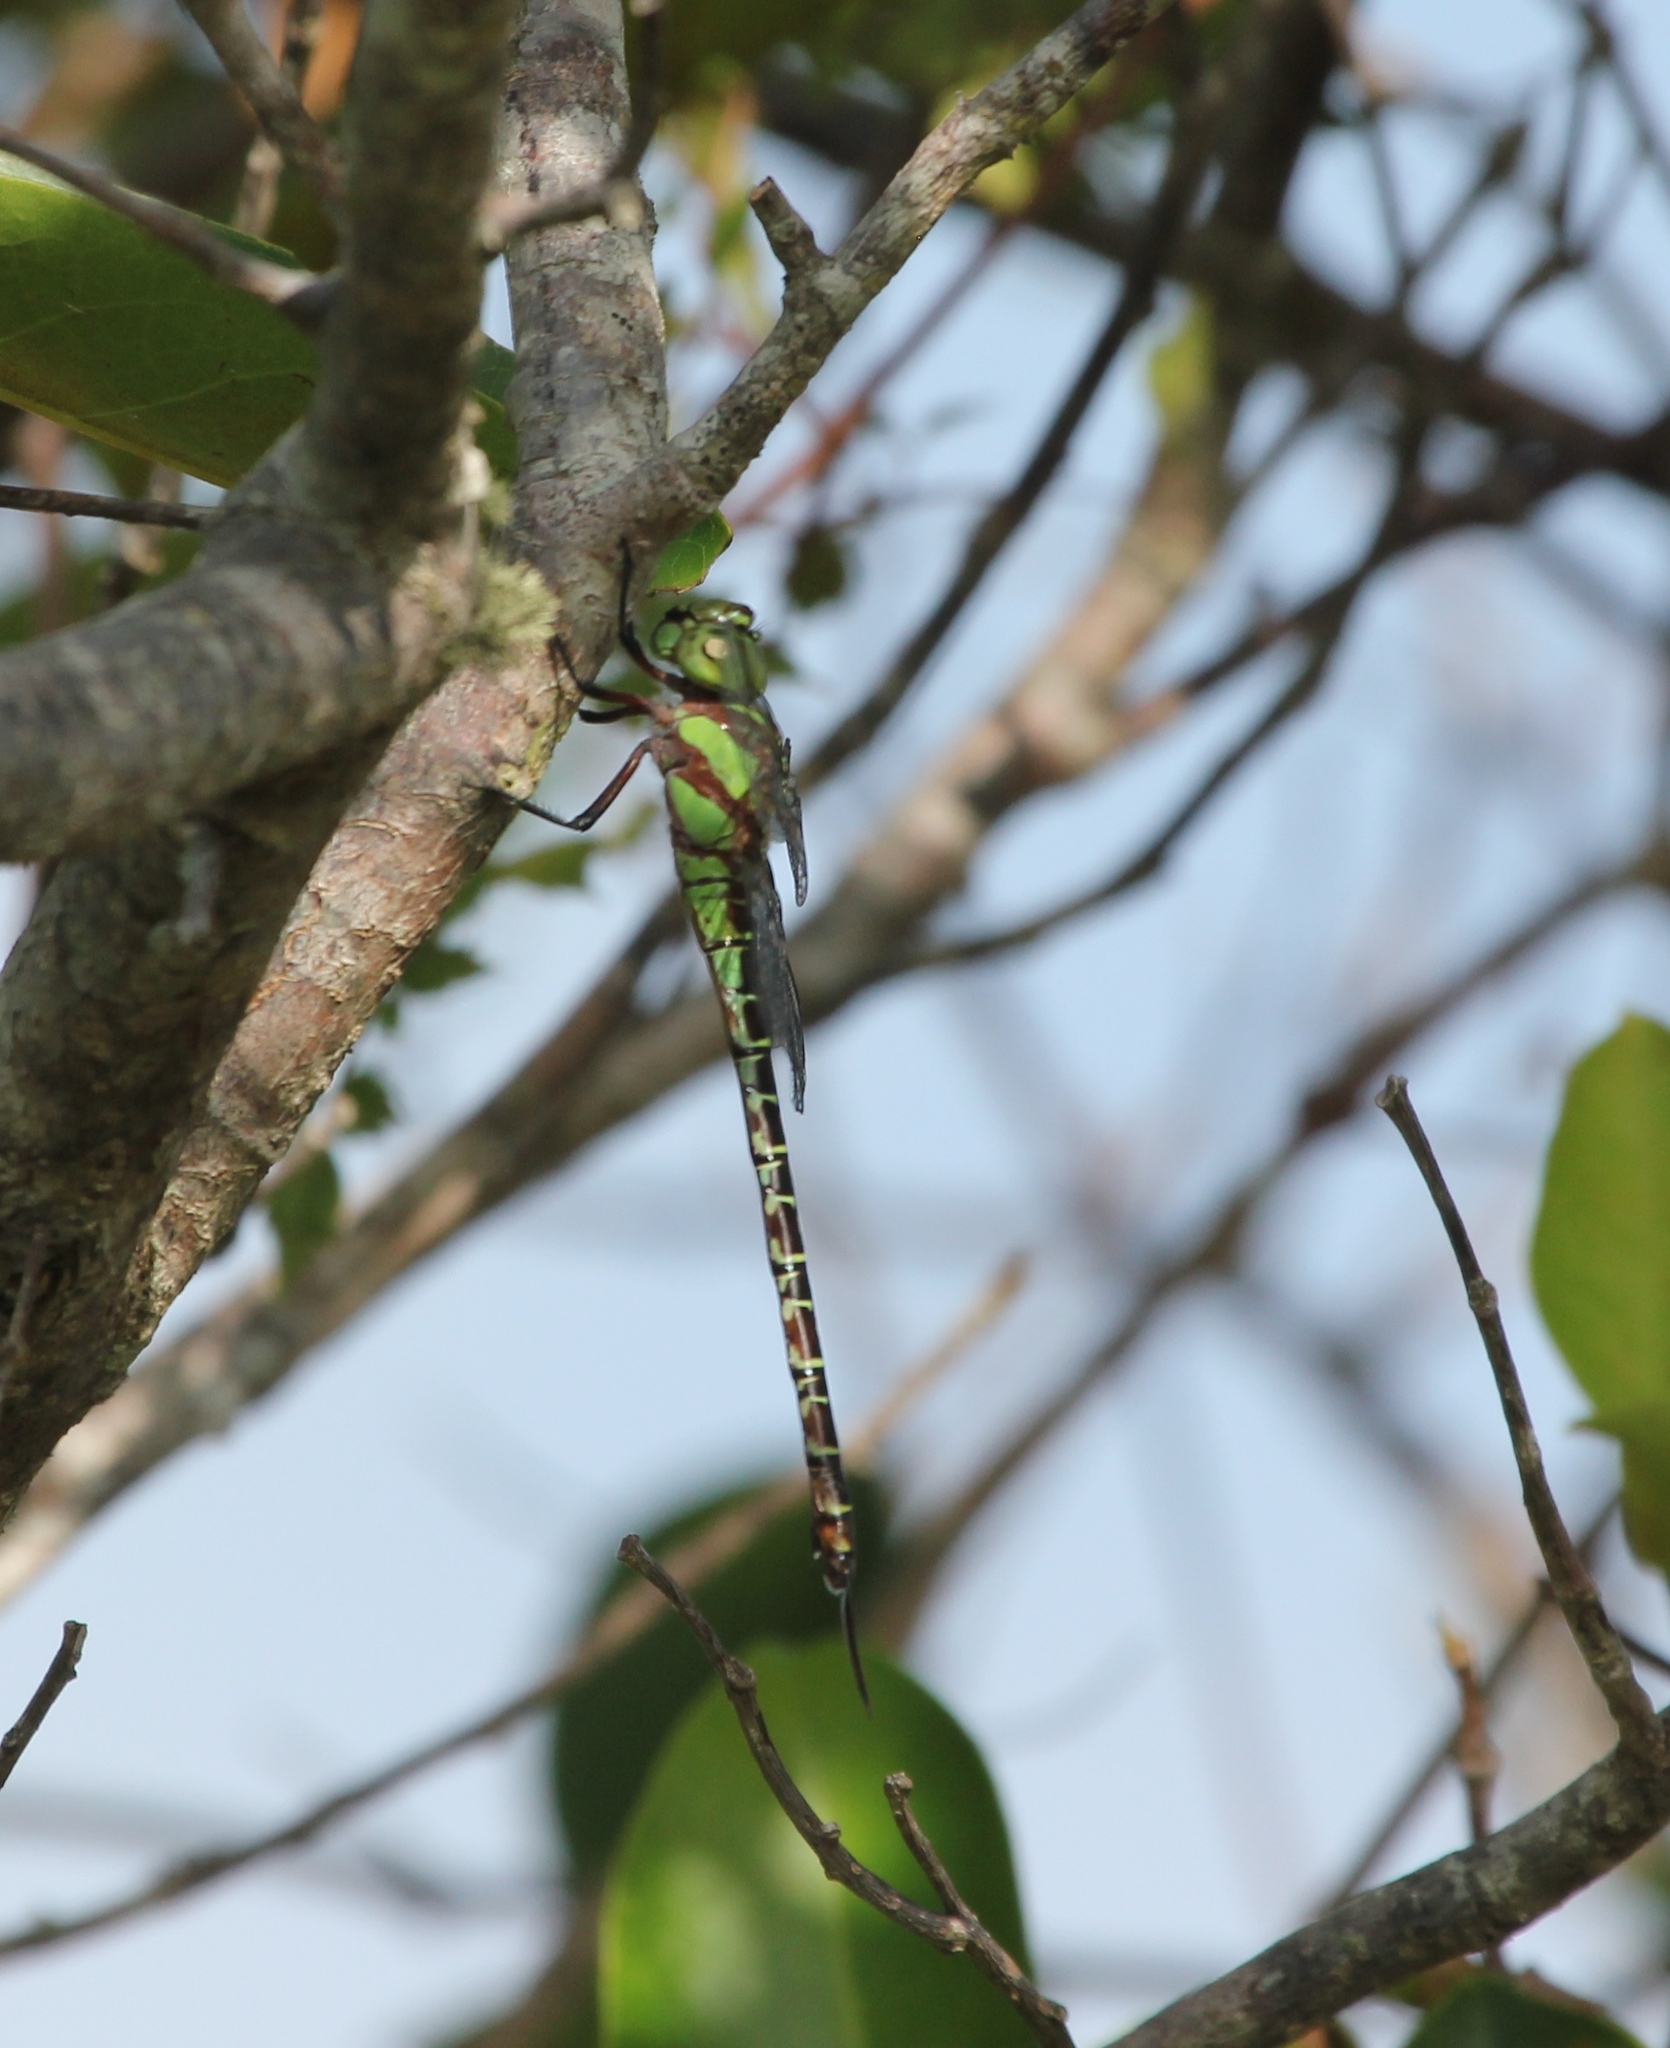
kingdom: Animalia
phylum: Arthropoda
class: Insecta
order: Odonata
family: Aeshnidae
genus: Coryphaeschna
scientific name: Coryphaeschna ingens
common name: Regal darner
